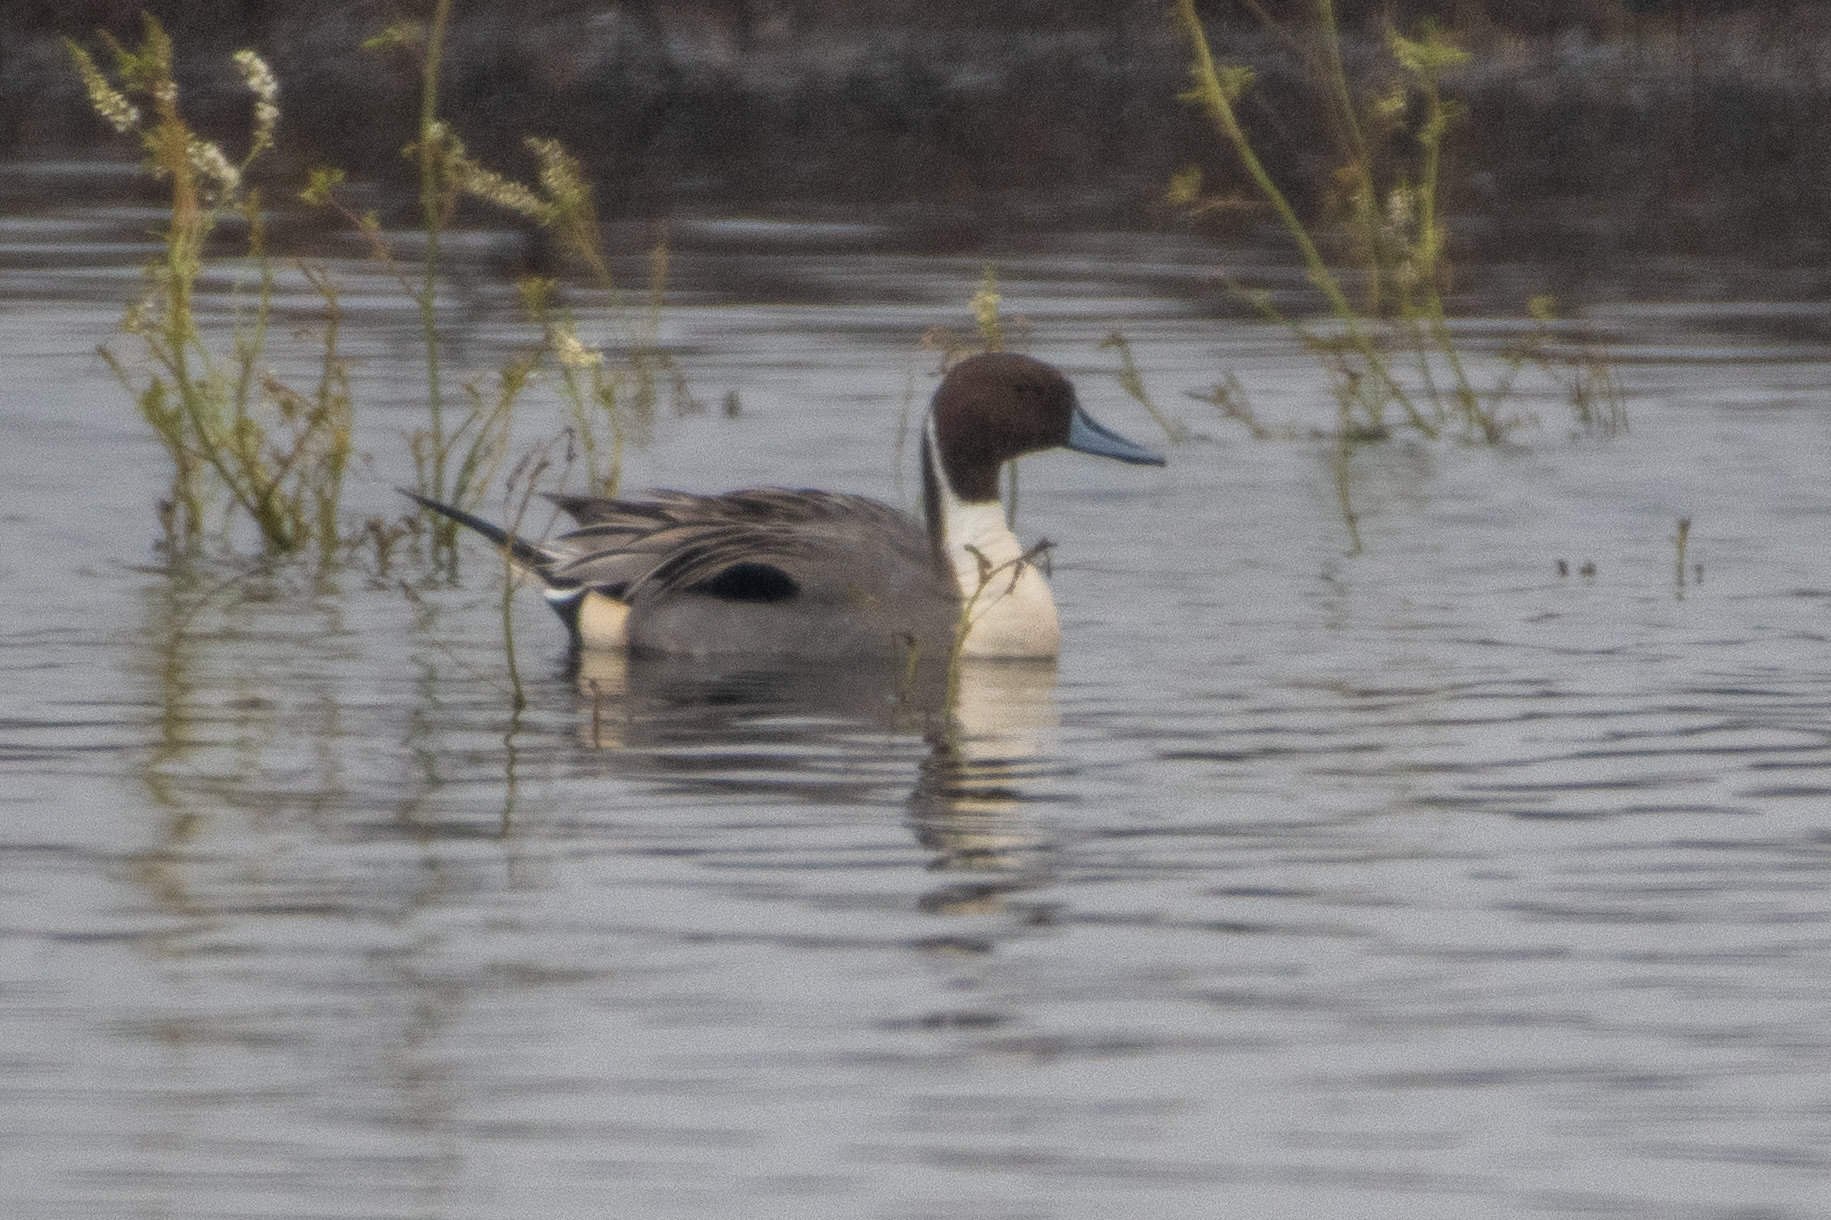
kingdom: Animalia
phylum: Chordata
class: Aves
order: Anseriformes
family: Anatidae
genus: Anas
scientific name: Anas acuta
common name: Northern pintail
